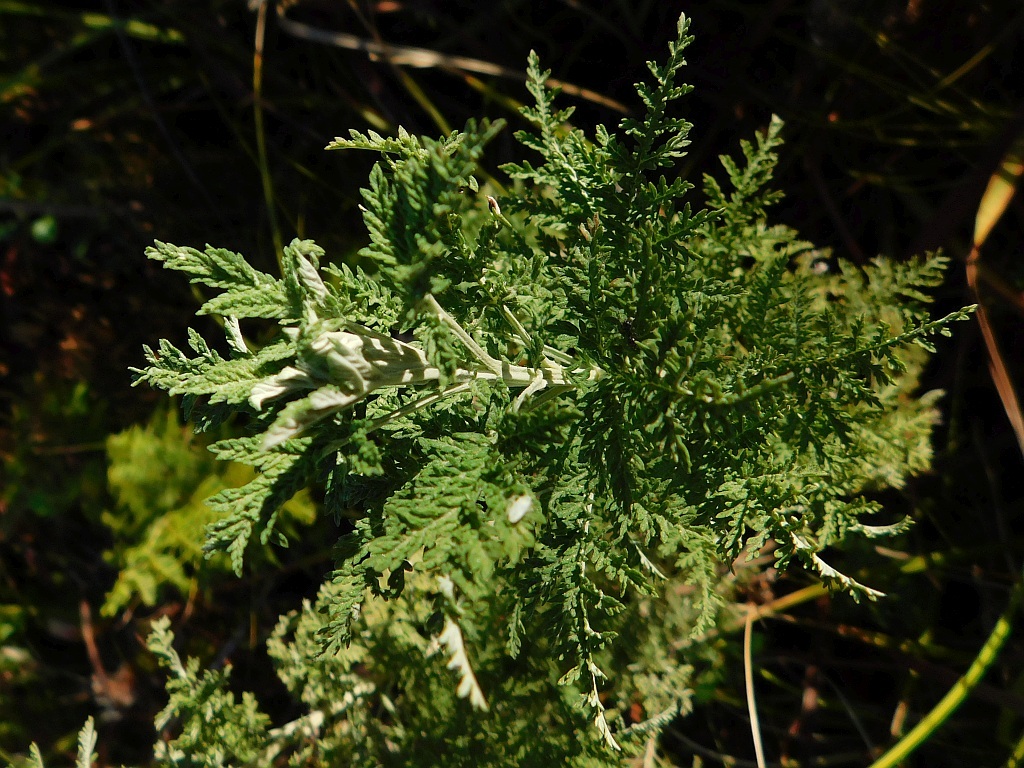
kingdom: Plantae
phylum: Tracheophyta
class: Magnoliopsida
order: Asterales
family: Asteraceae
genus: Artemisia
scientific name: Artemisia afra
